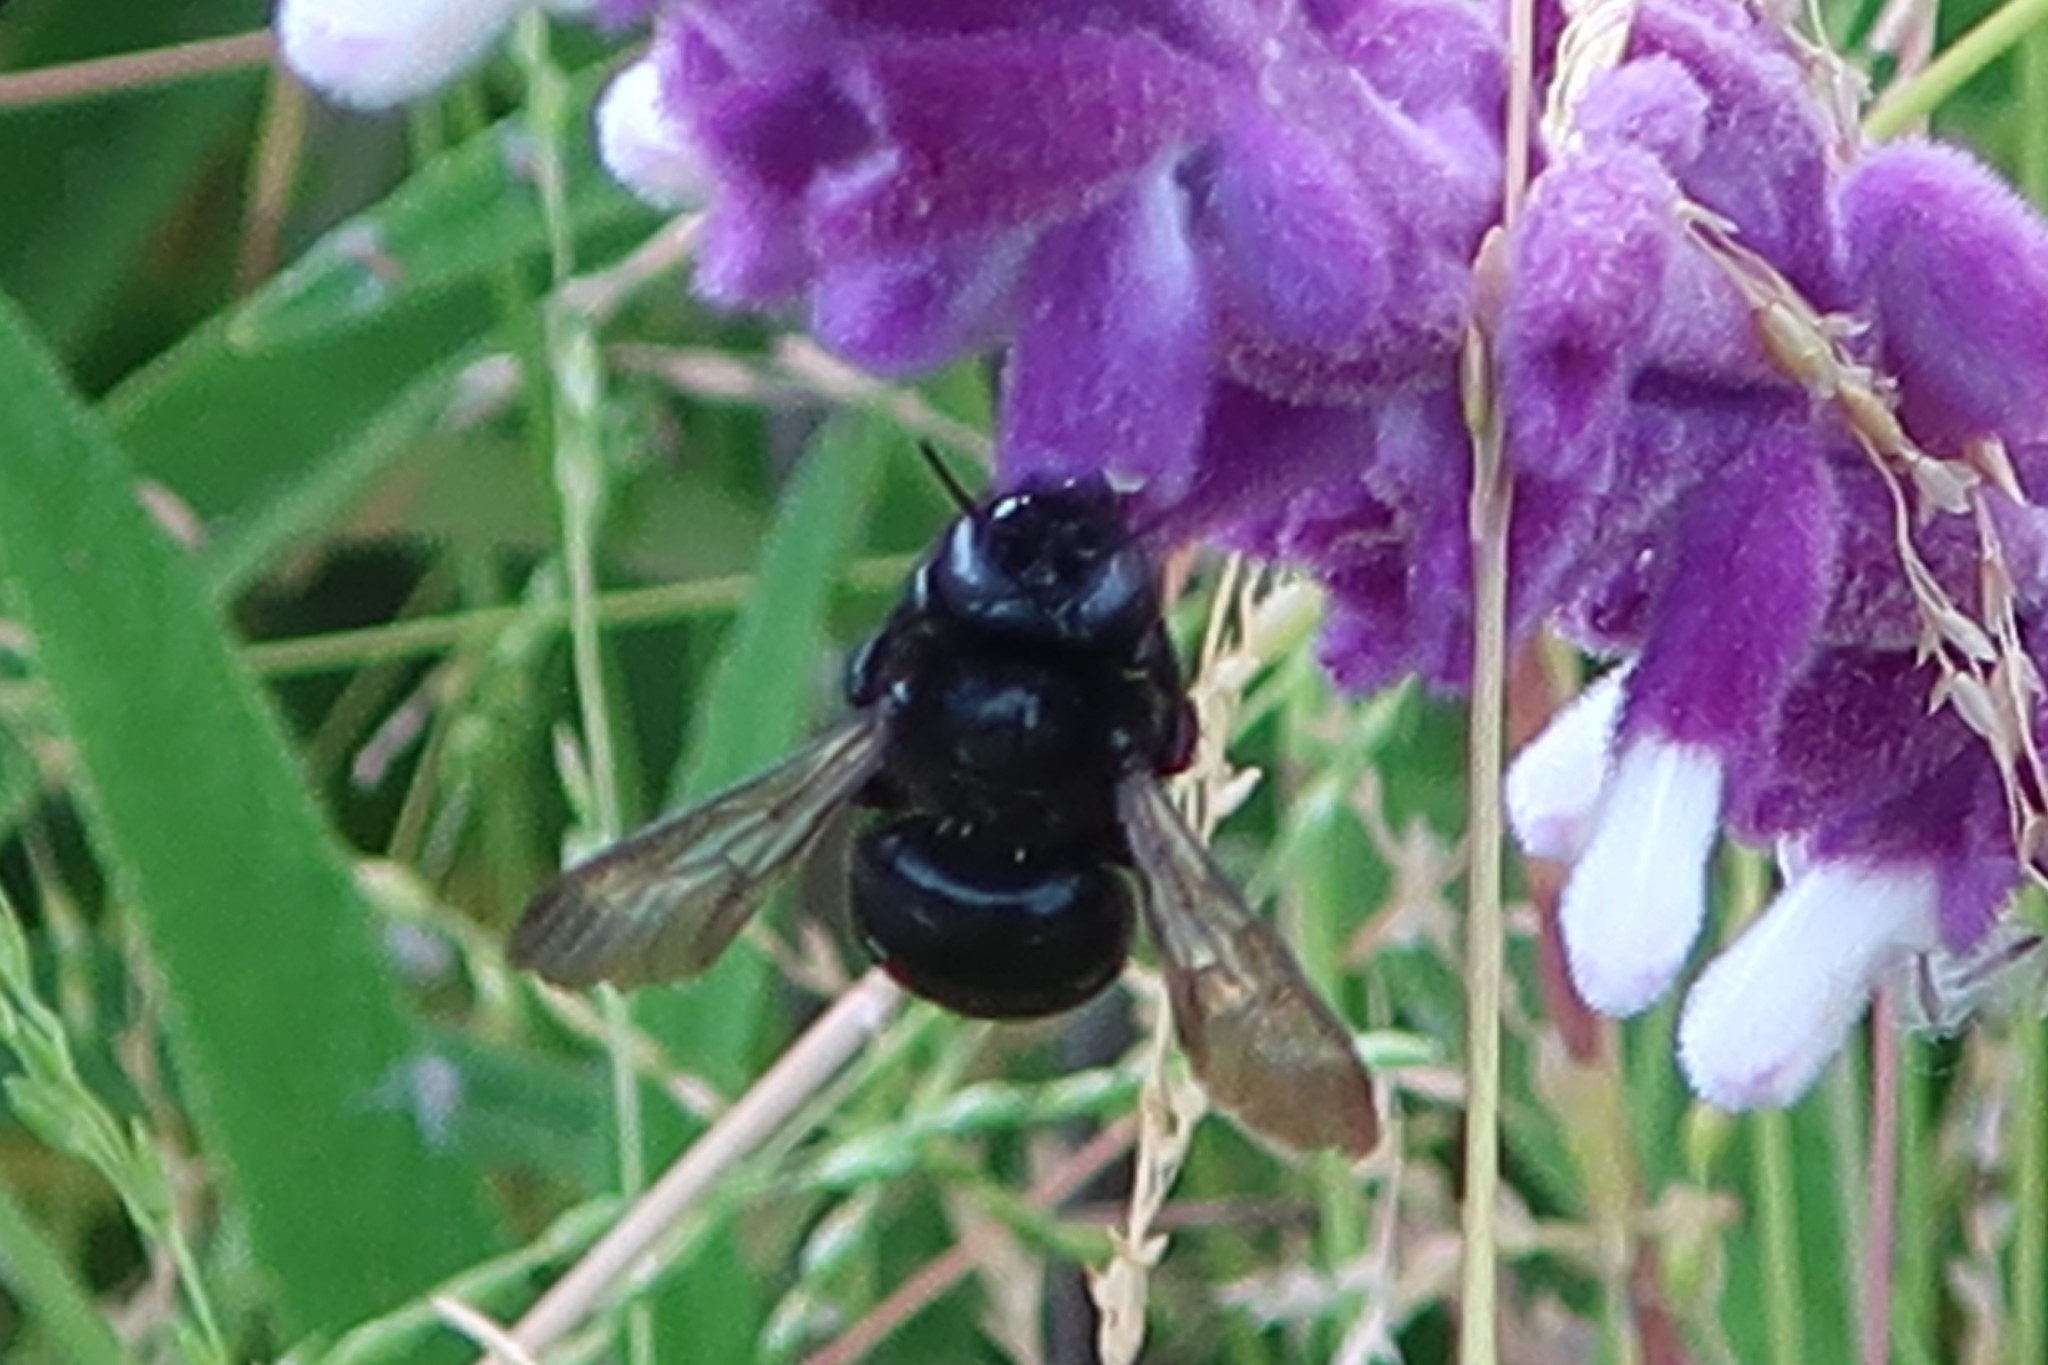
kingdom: Animalia
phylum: Arthropoda
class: Insecta
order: Hymenoptera
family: Apidae
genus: Xylocopa
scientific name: Xylocopa tabaniformis
